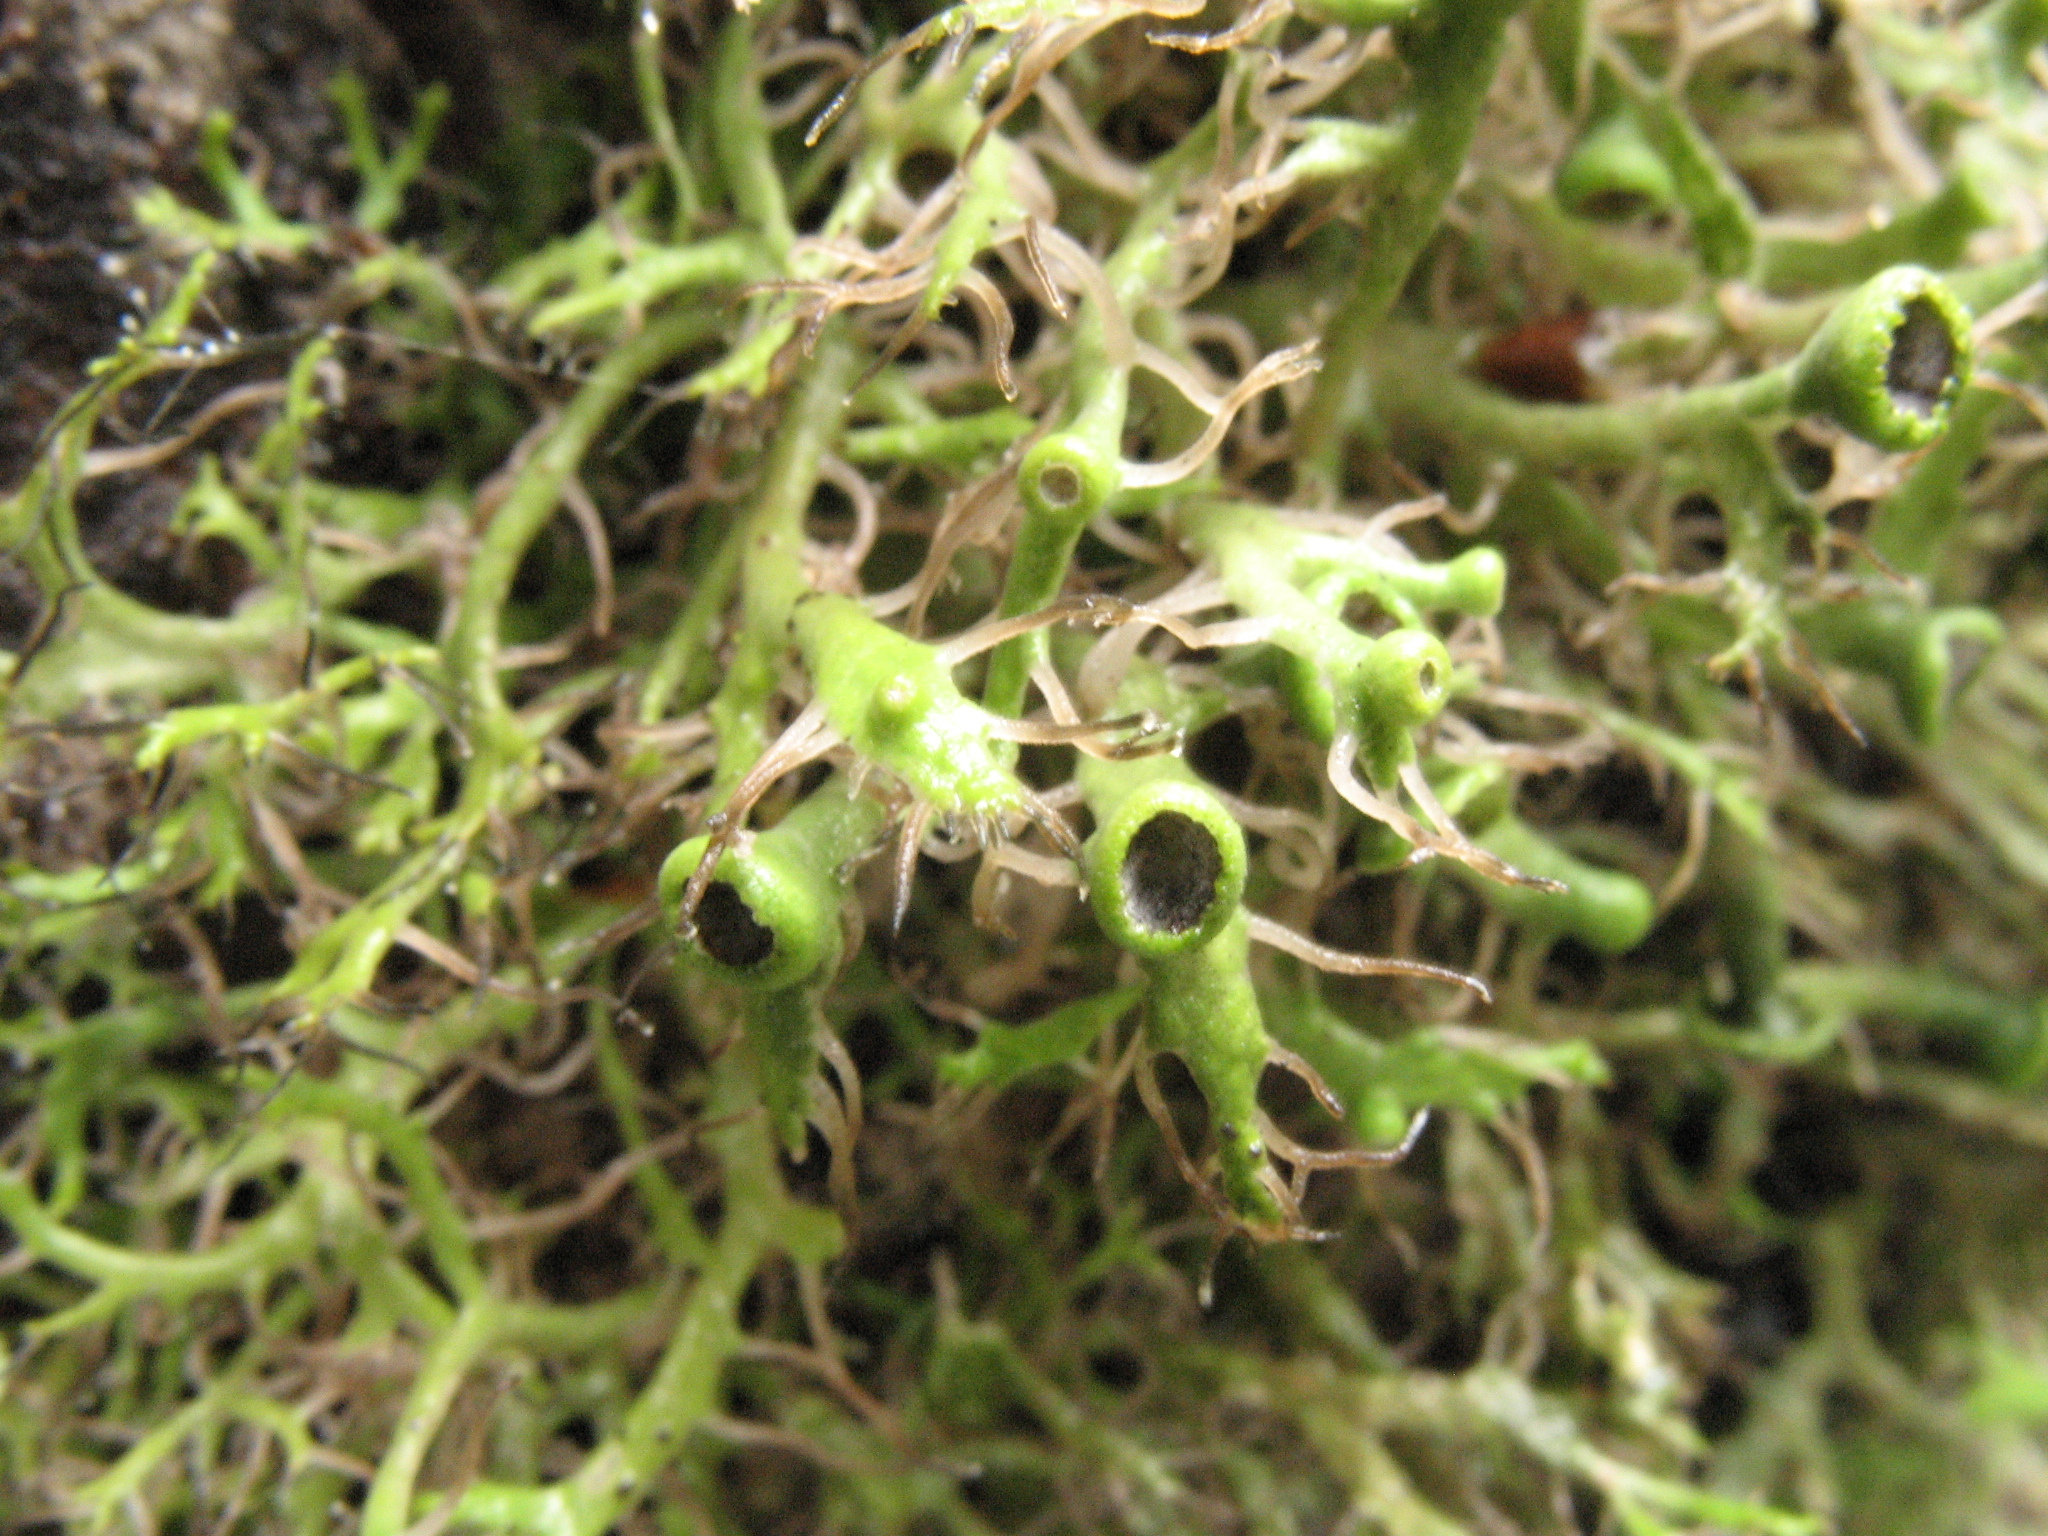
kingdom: Fungi
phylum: Ascomycota
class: Lecanoromycetes
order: Caliciales
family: Physciaceae
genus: Anaptychia
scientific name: Anaptychia ciliaris
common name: Great ciliated lichen
